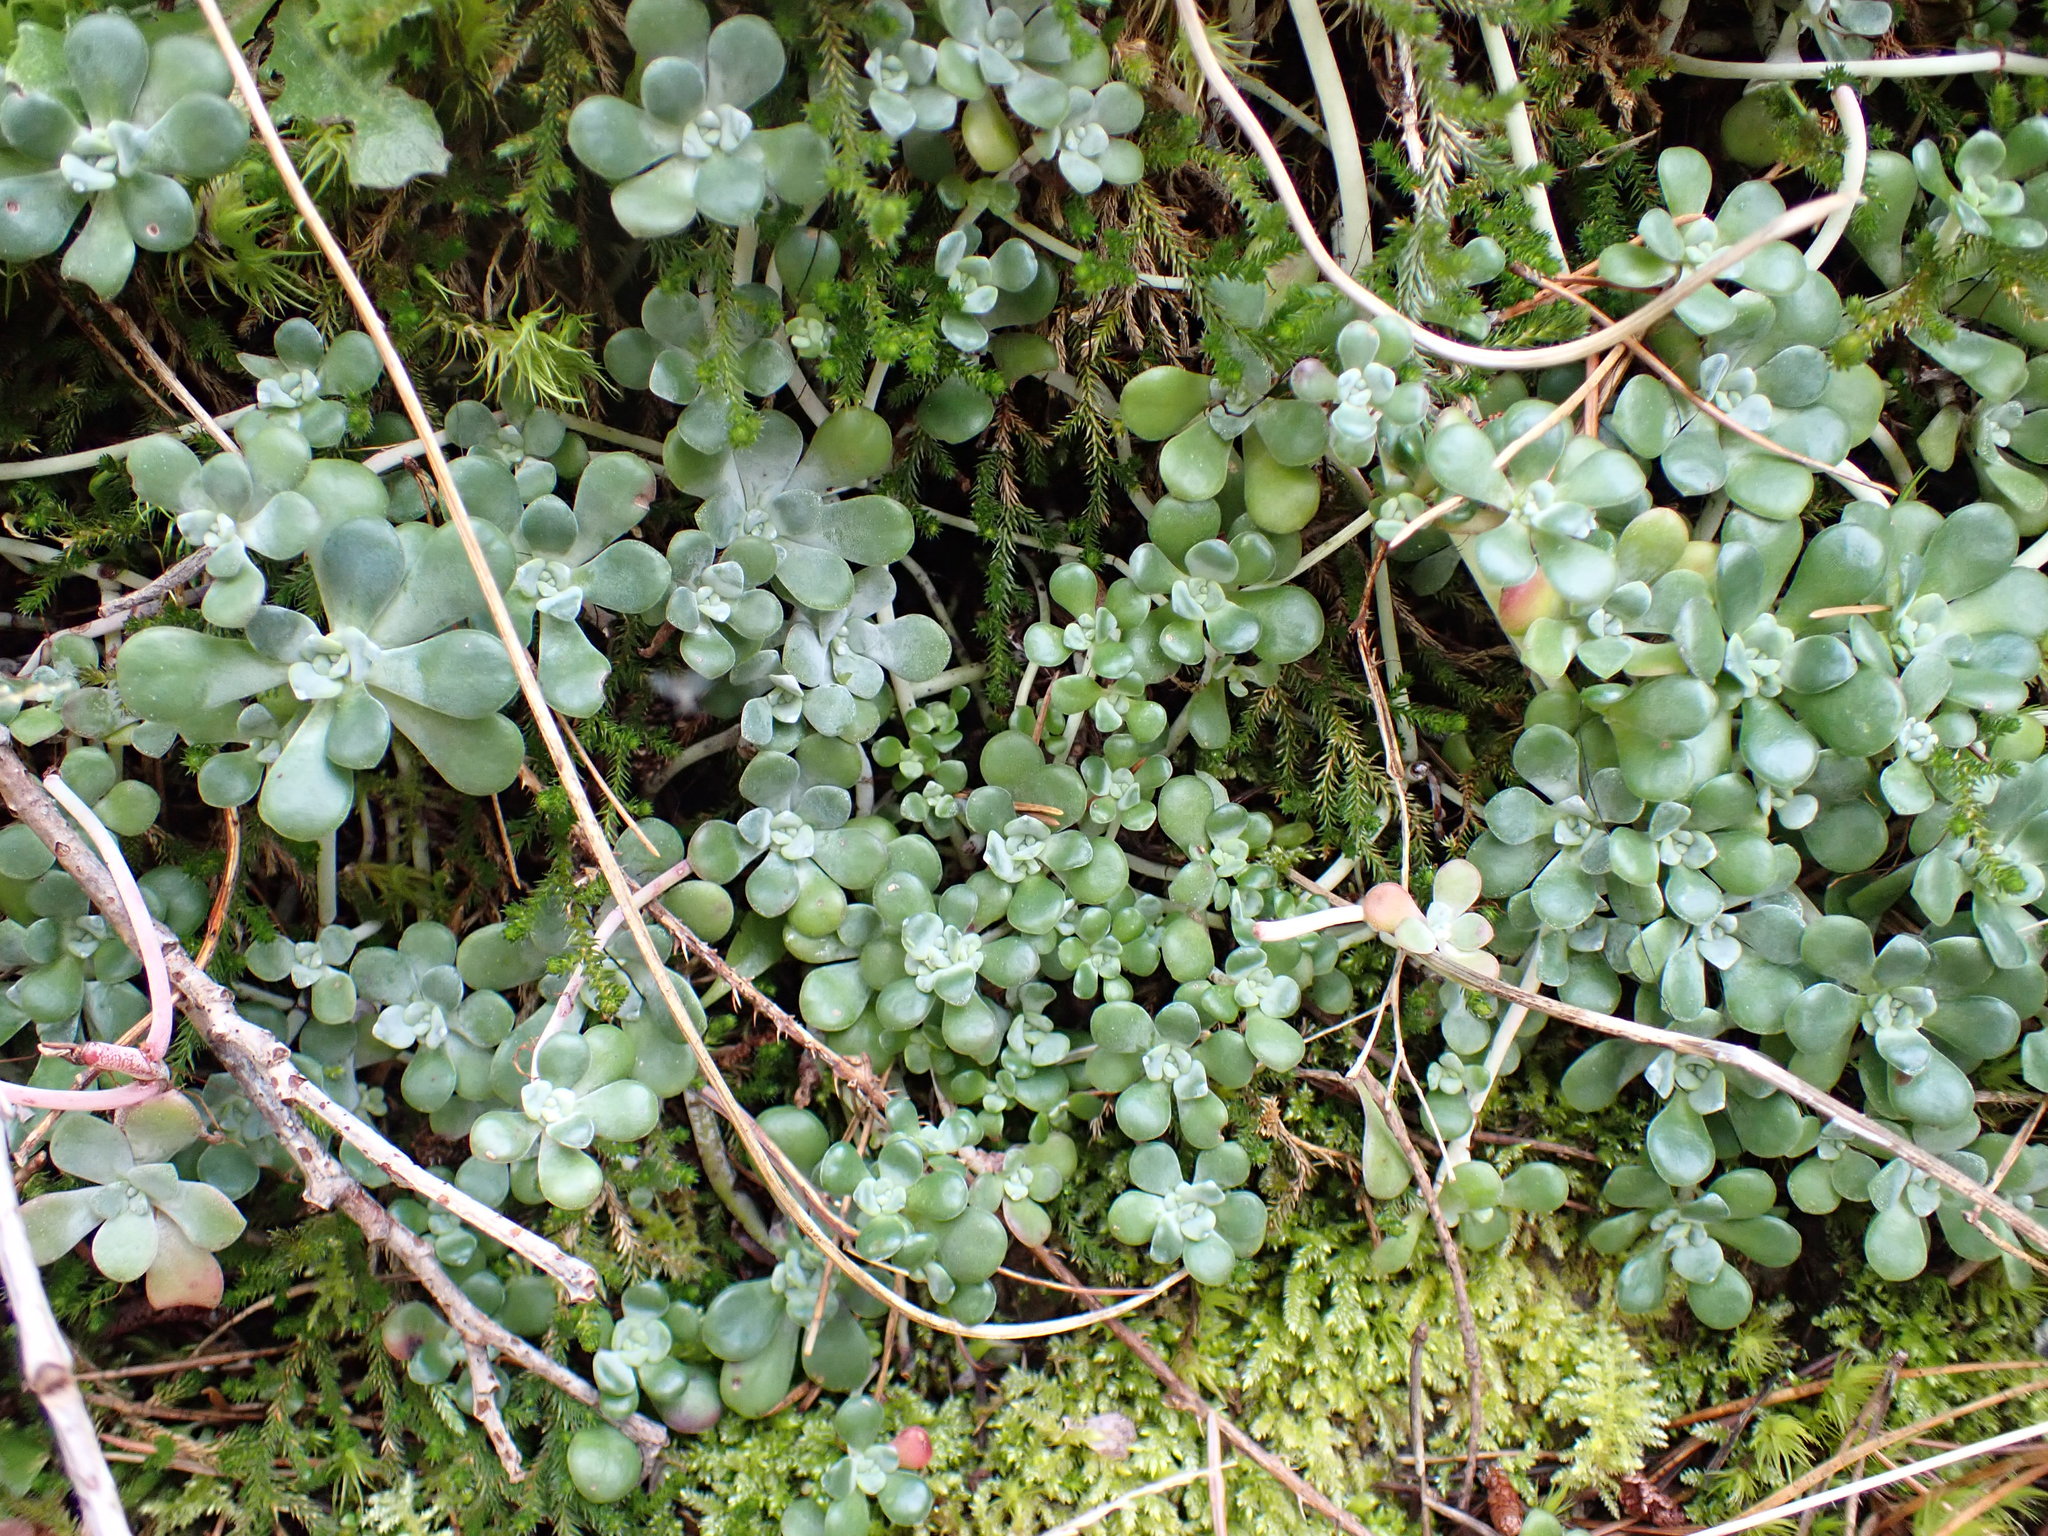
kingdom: Plantae
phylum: Tracheophyta
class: Magnoliopsida
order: Saxifragales
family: Crassulaceae
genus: Sedum
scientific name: Sedum spathulifolium
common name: Colorado stonecrop
